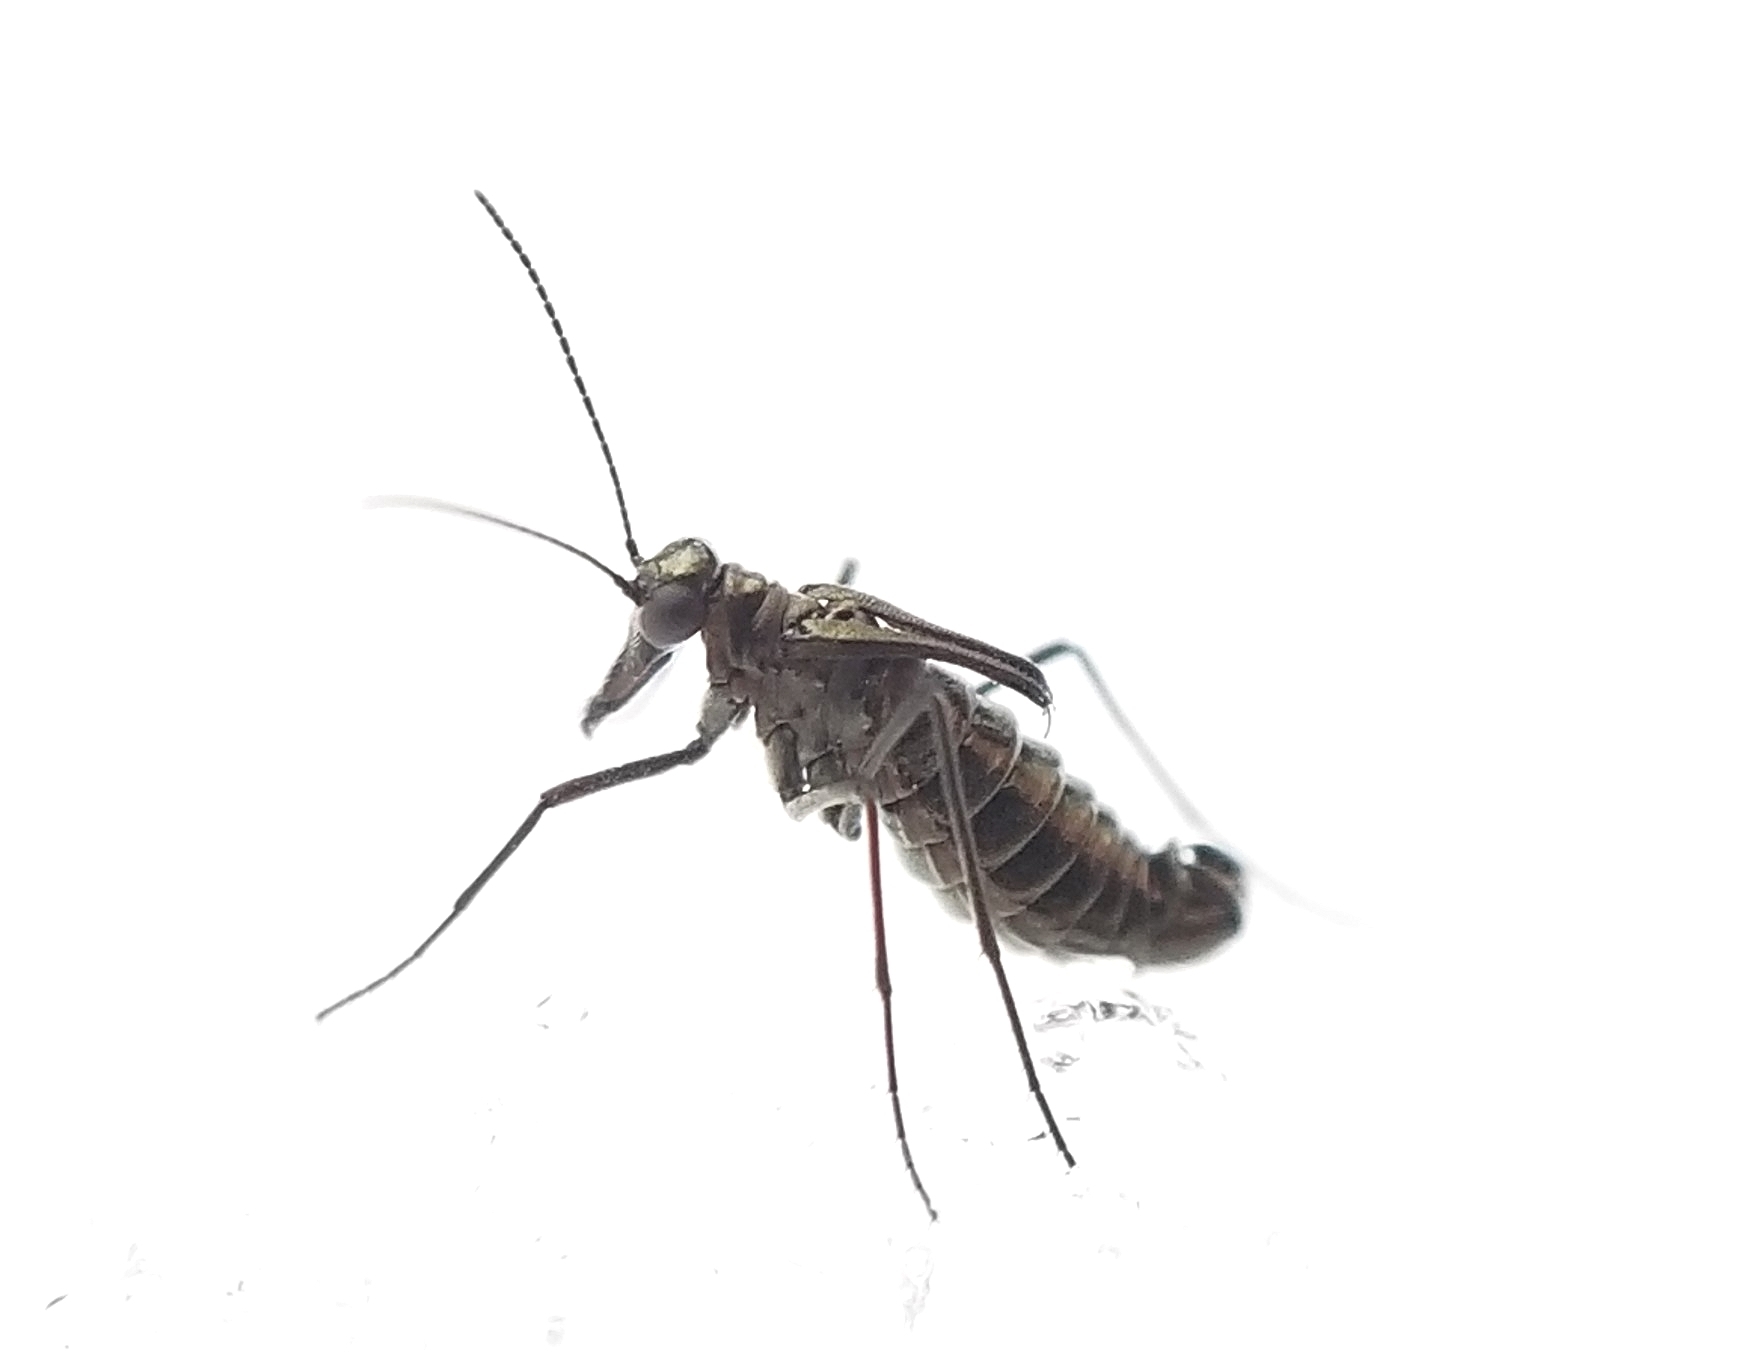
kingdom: Animalia
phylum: Arthropoda
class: Insecta
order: Mecoptera
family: Boreidae
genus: Boreus
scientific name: Boreus coloradensis
